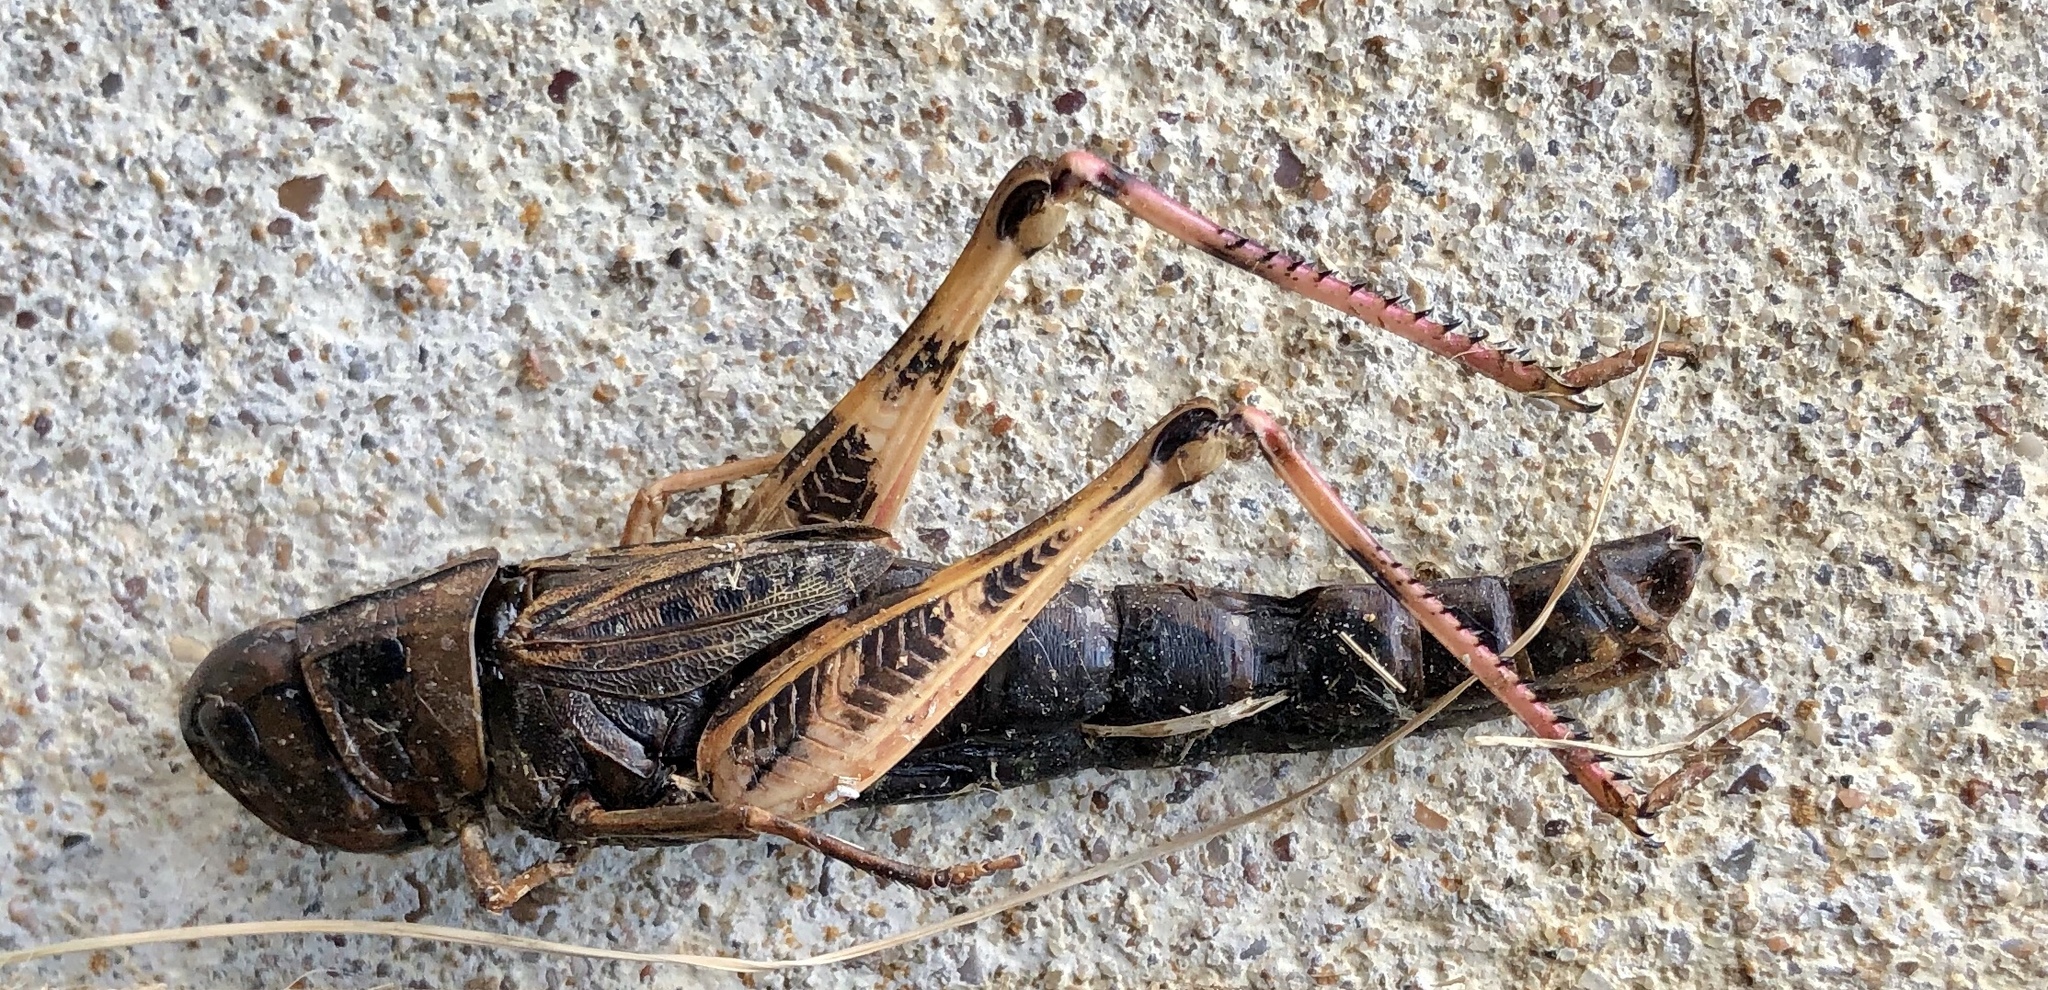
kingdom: Animalia
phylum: Arthropoda
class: Insecta
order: Orthoptera
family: Acrididae
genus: Boopedon
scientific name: Boopedon gracile
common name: Graceful range grasshopper
